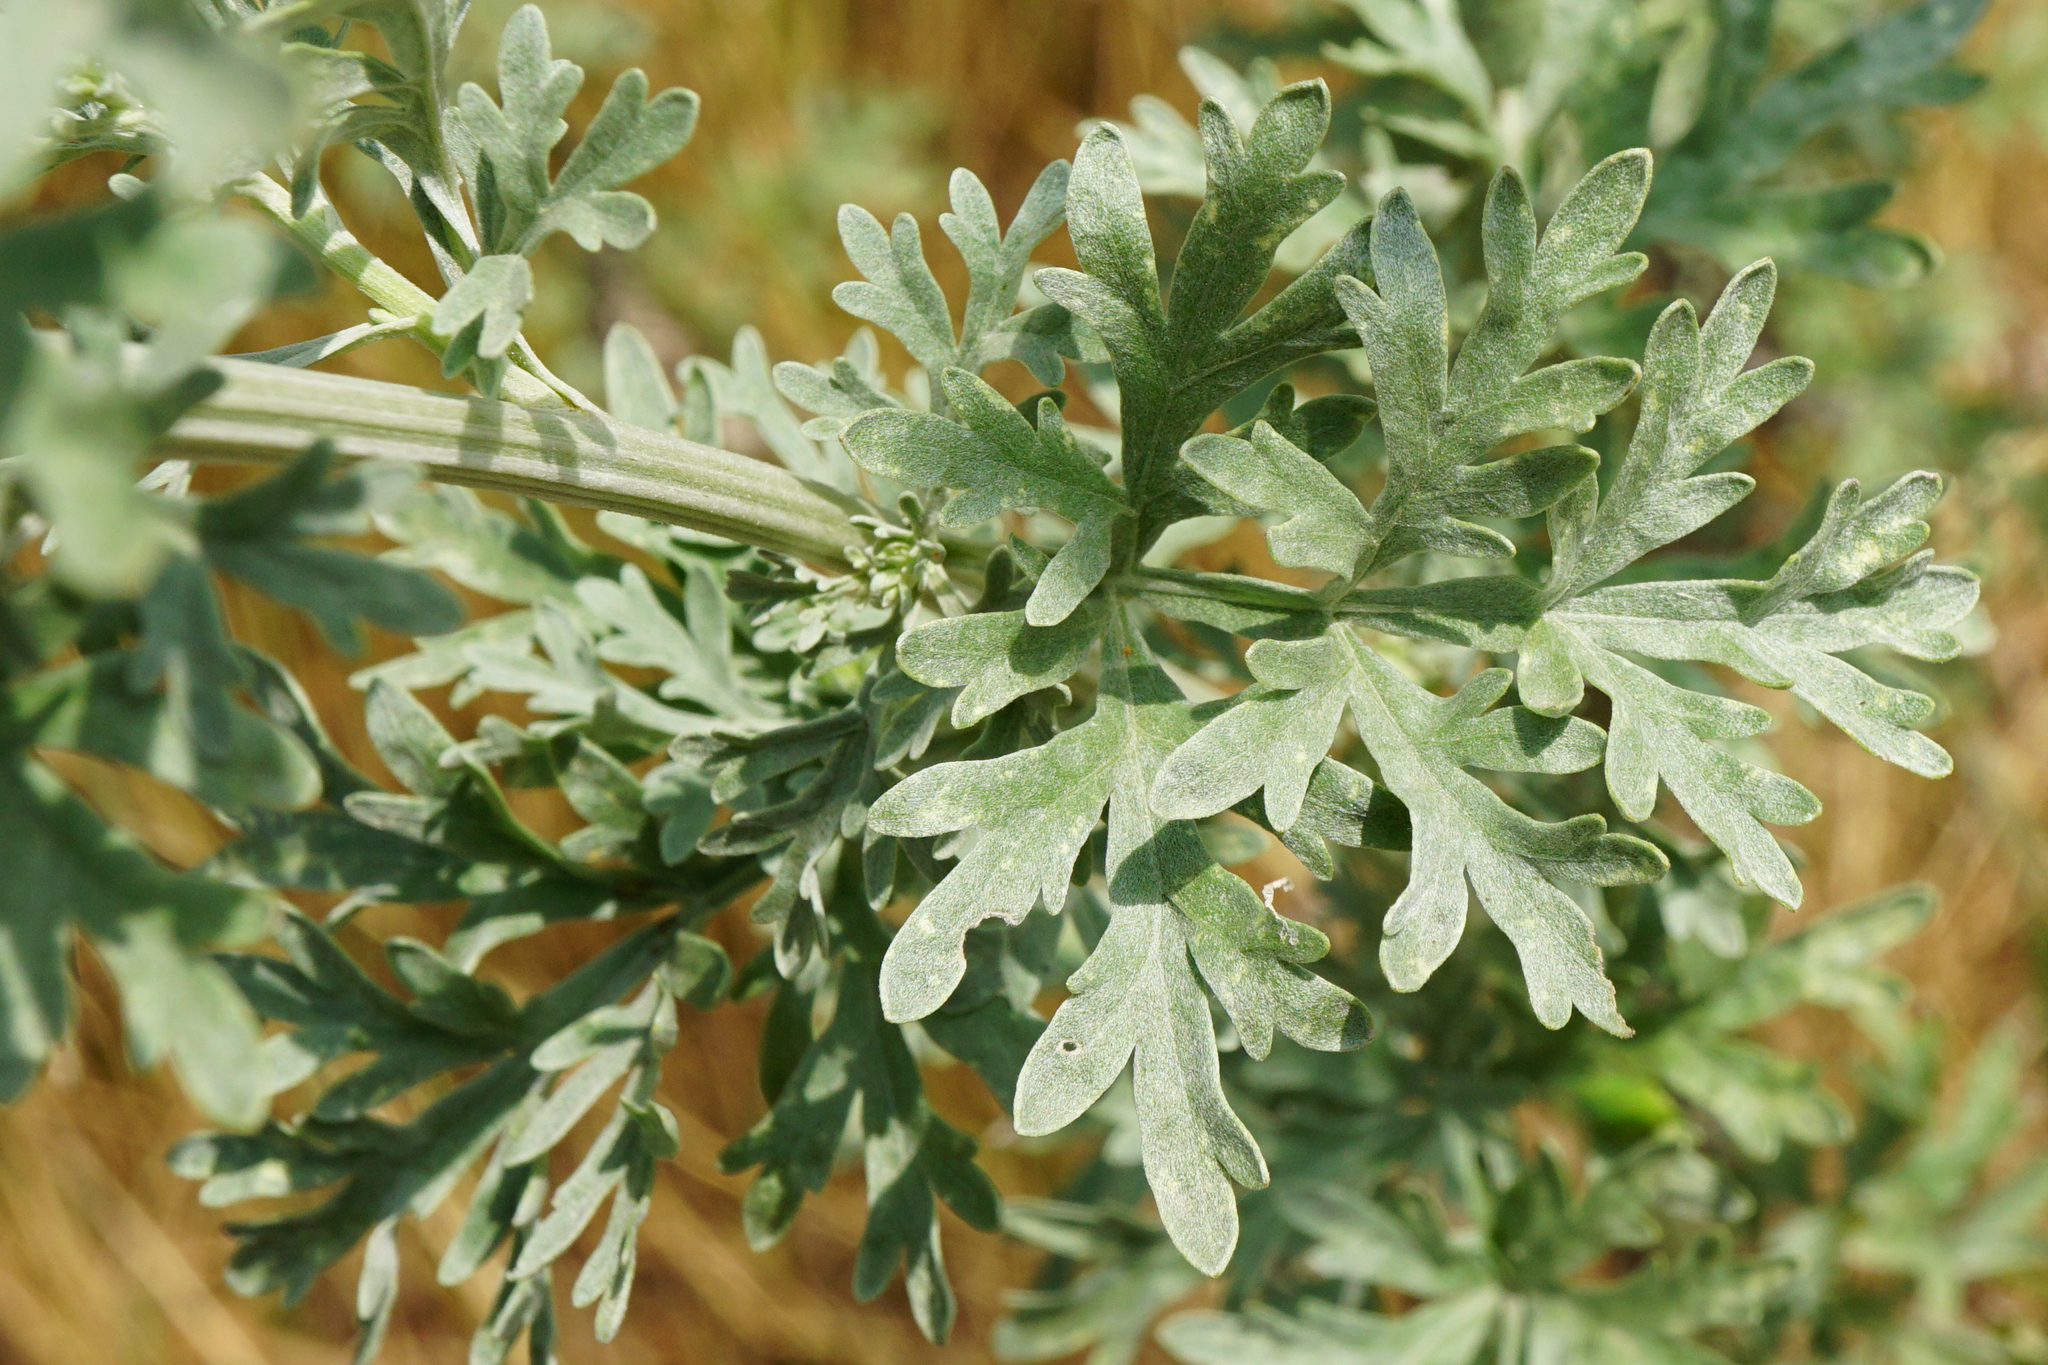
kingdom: Plantae
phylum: Tracheophyta
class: Magnoliopsida
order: Asterales
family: Asteraceae
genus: Artemisia
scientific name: Artemisia absinthium
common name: Wormwood
